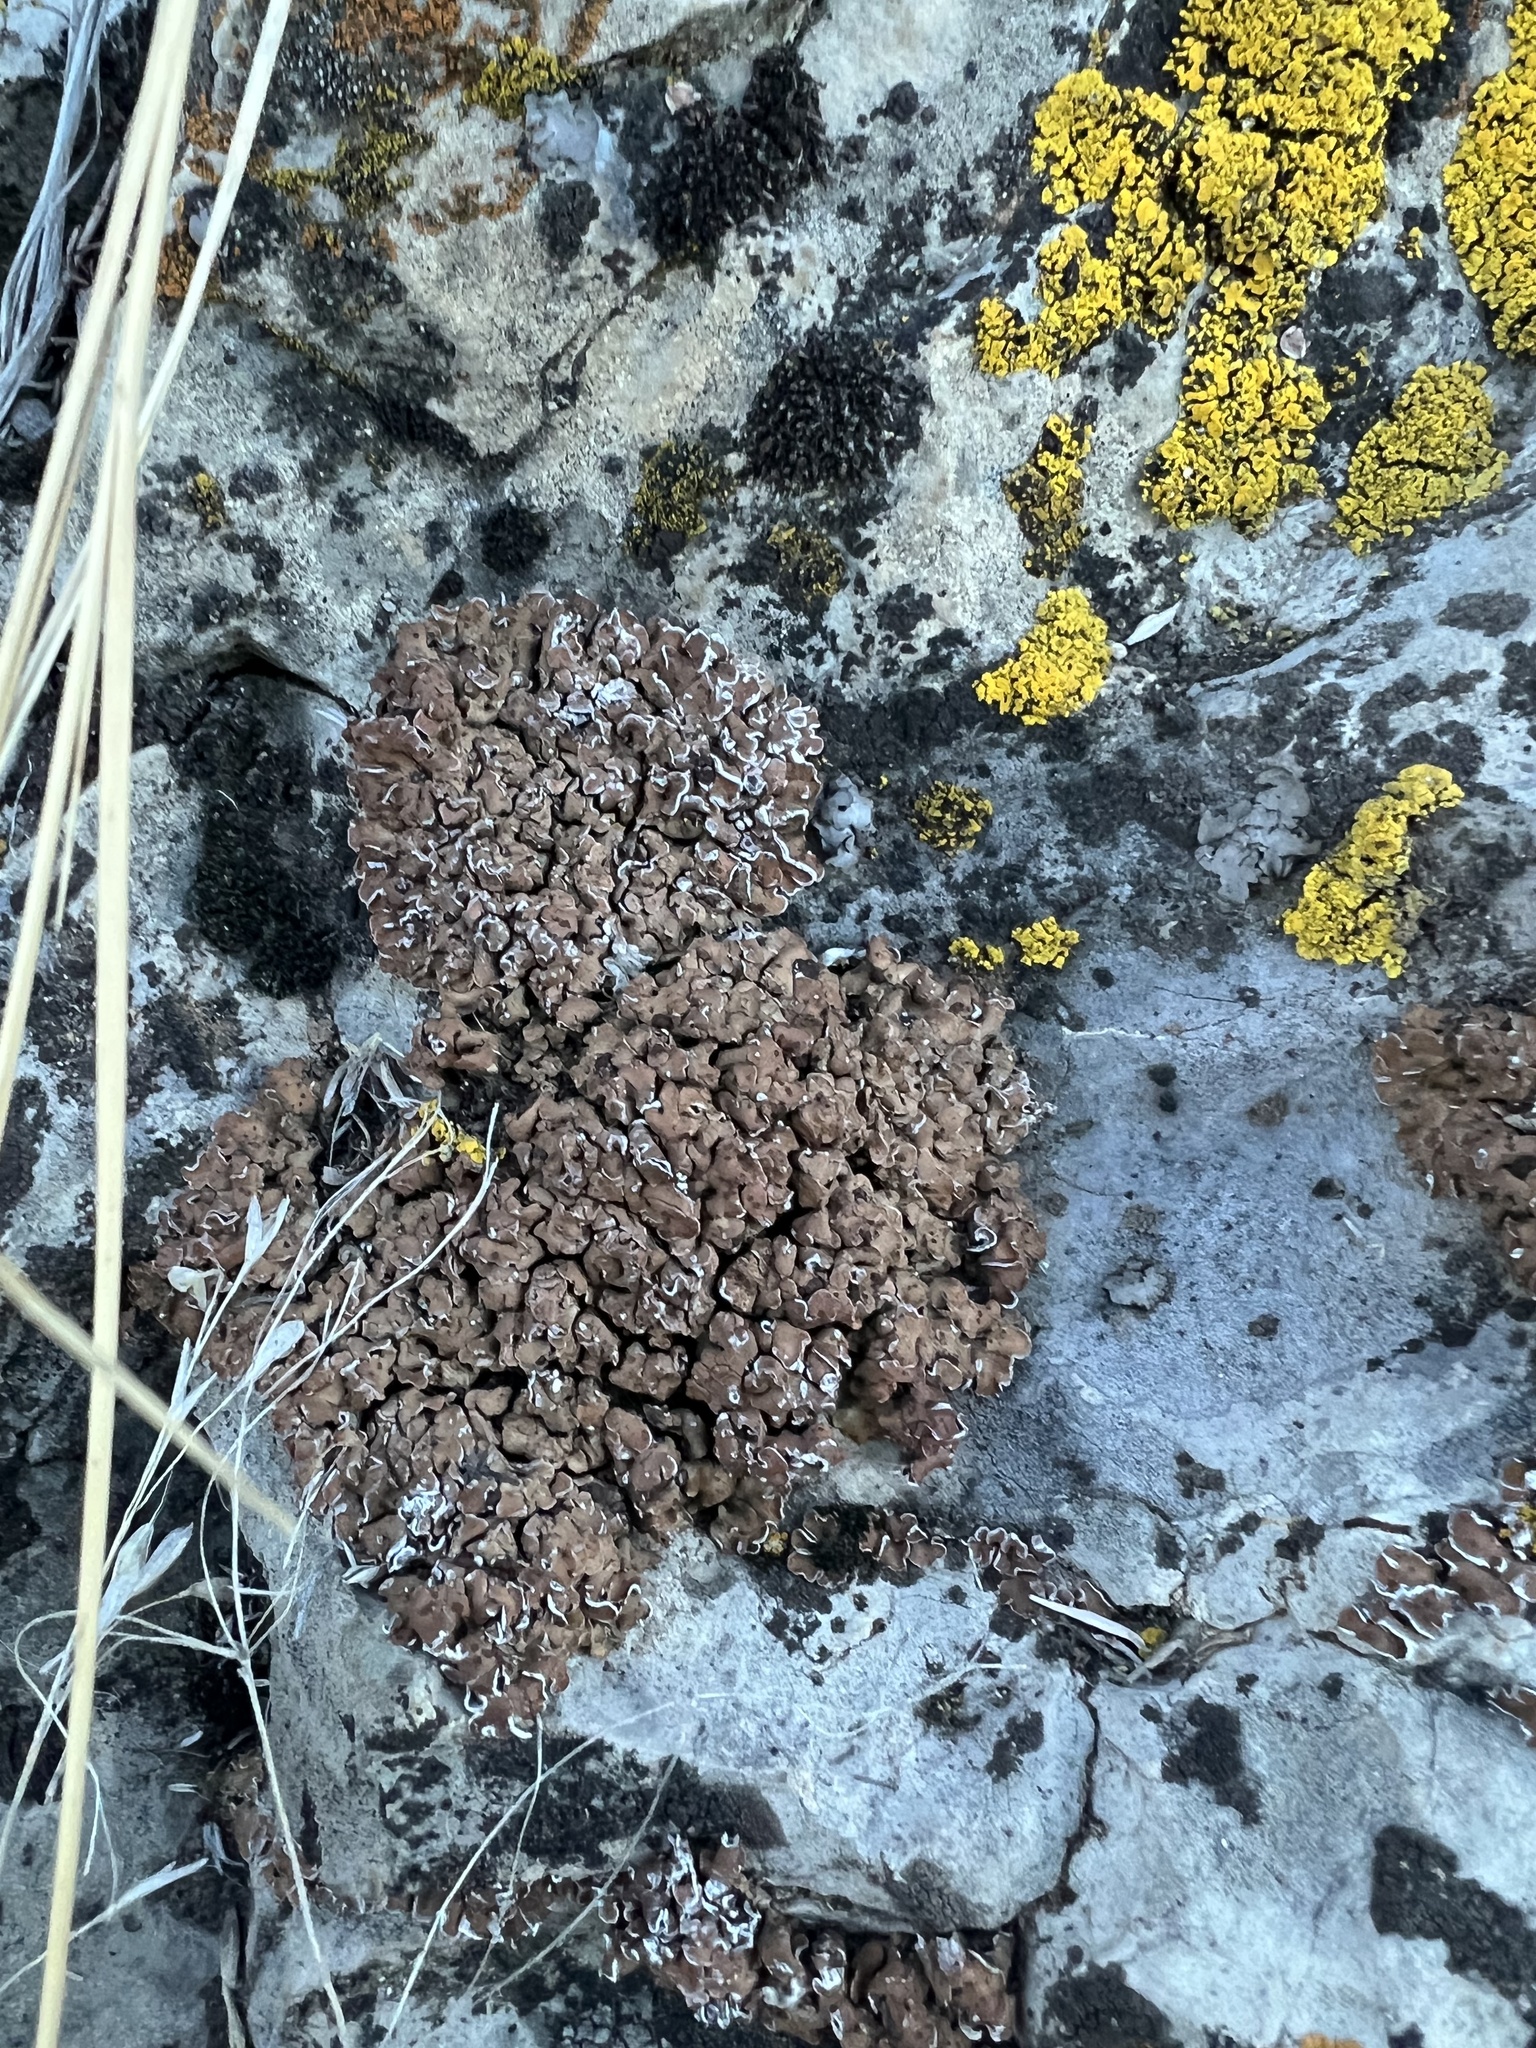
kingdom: Fungi
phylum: Ascomycota
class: Lecanoromycetes
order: Lecanorales
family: Psoraceae
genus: Psora
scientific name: Psora tuckermanii
